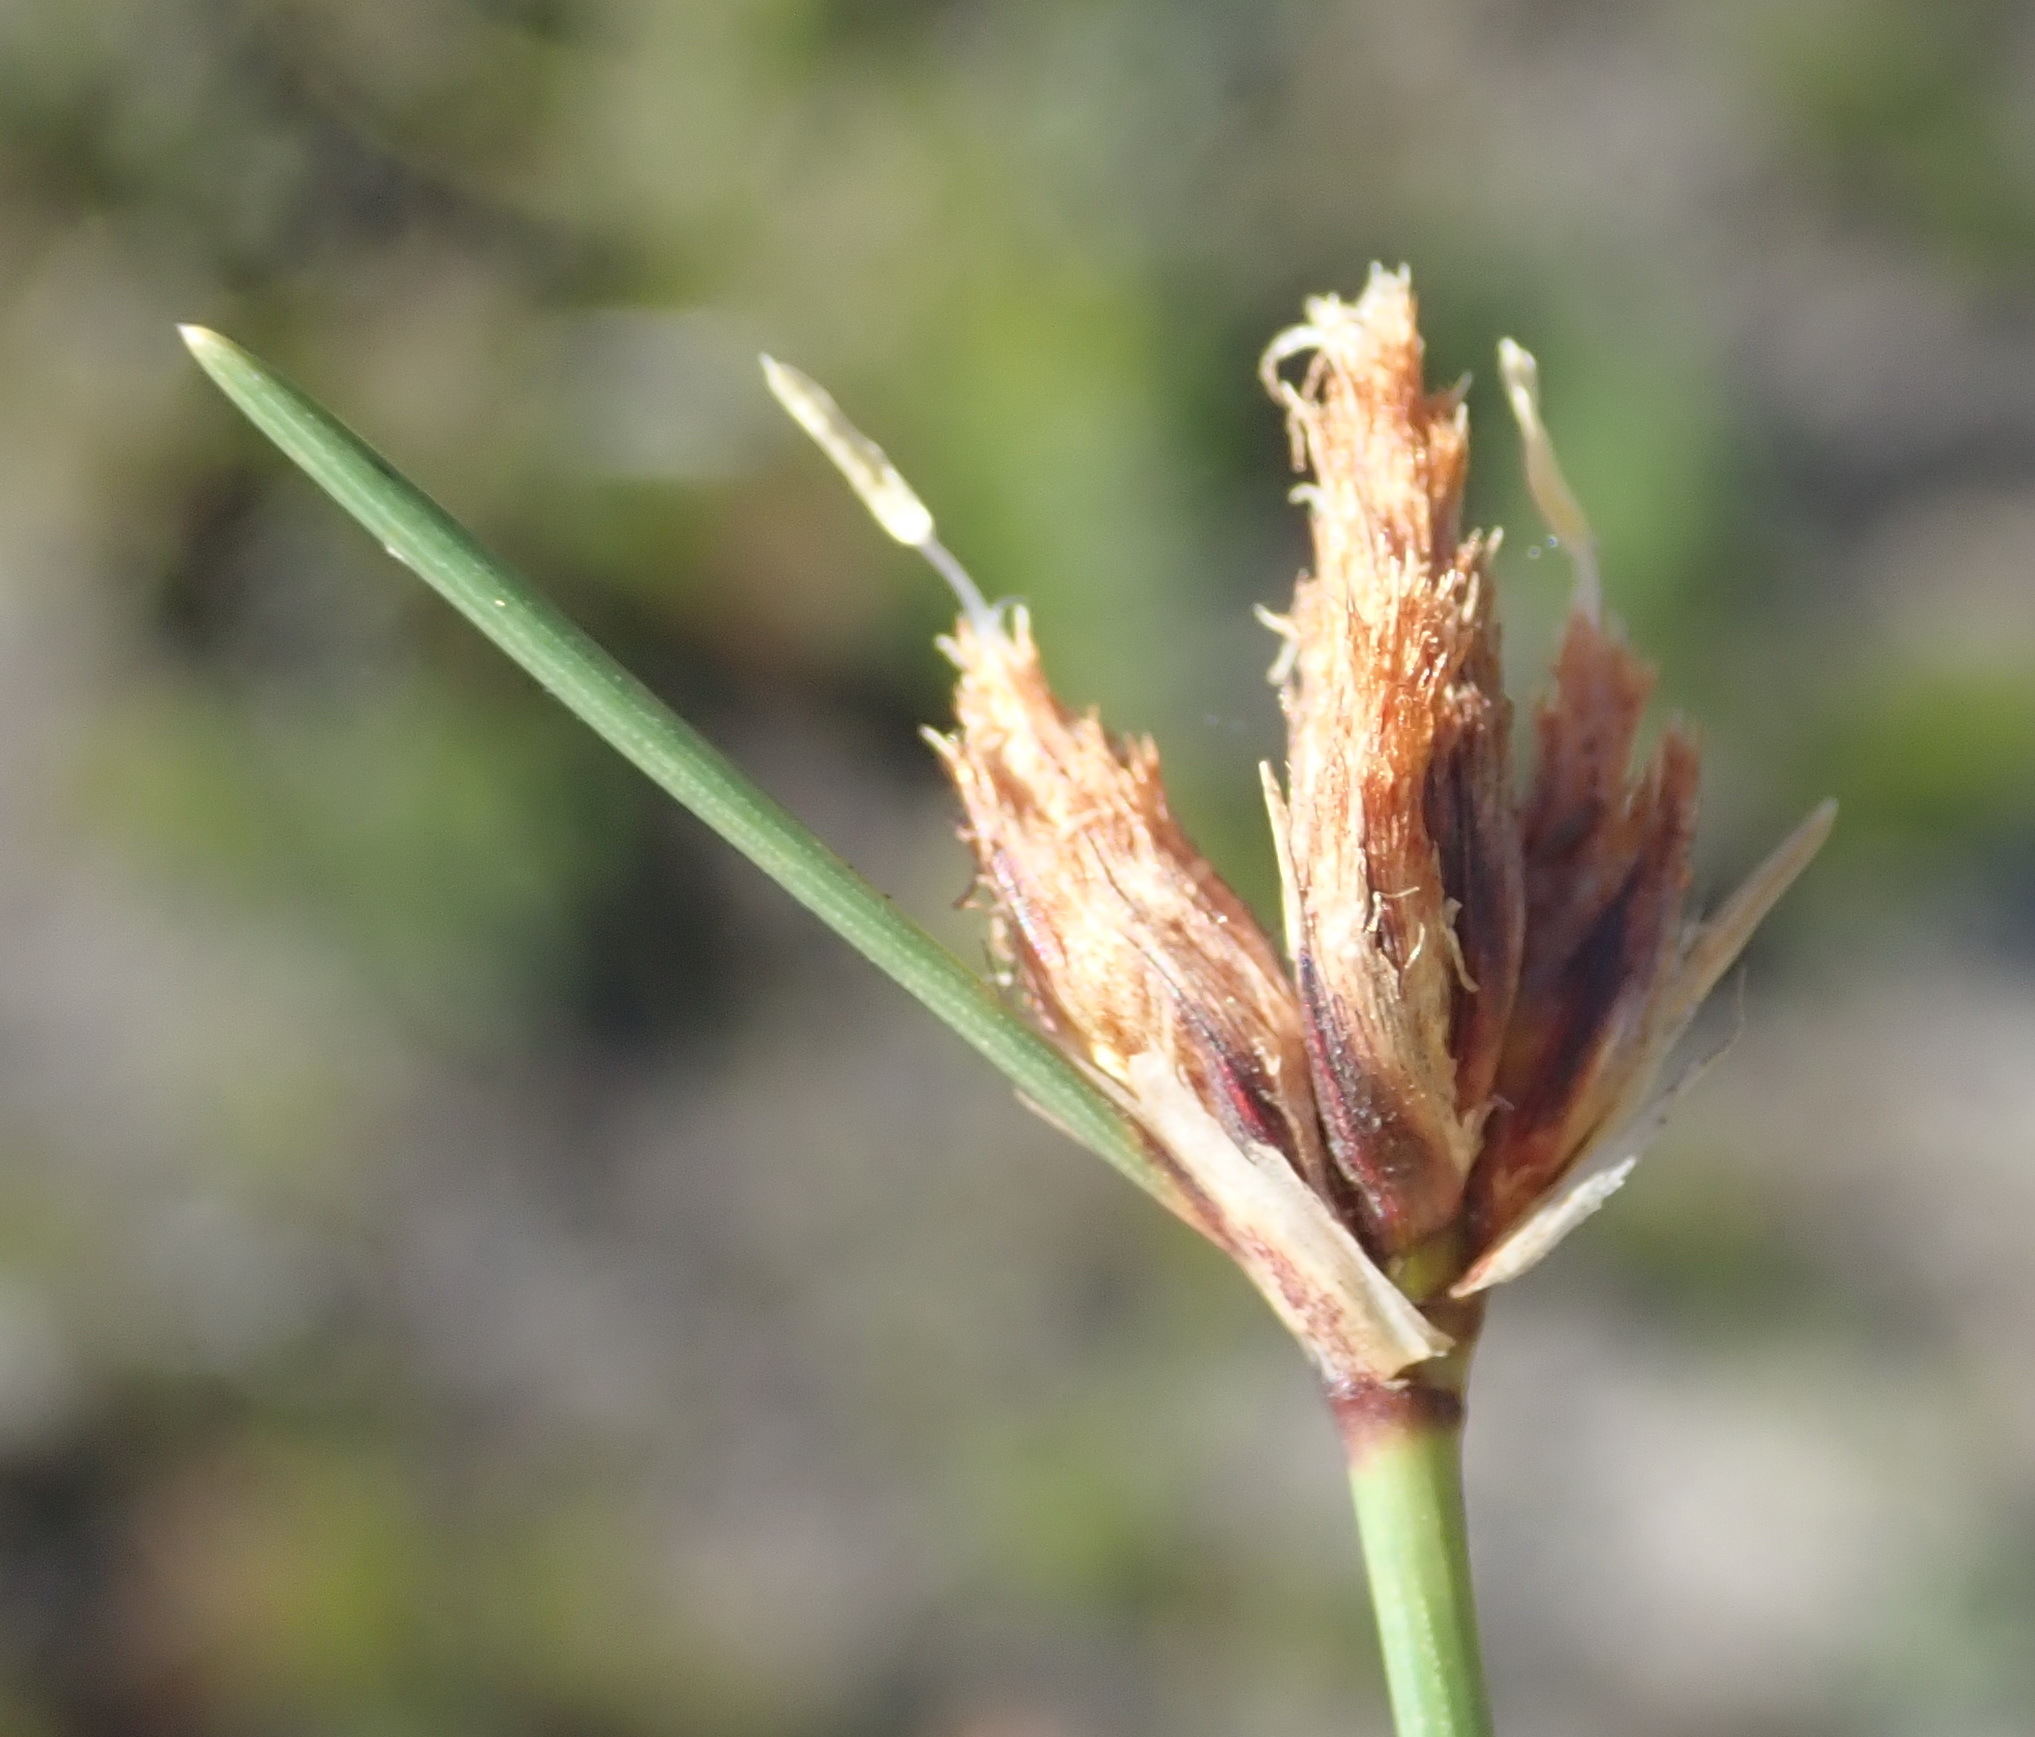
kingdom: Plantae
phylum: Tracheophyta
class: Liliopsida
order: Poales
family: Cyperaceae
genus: Ficinia
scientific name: Ficinia laciniata
